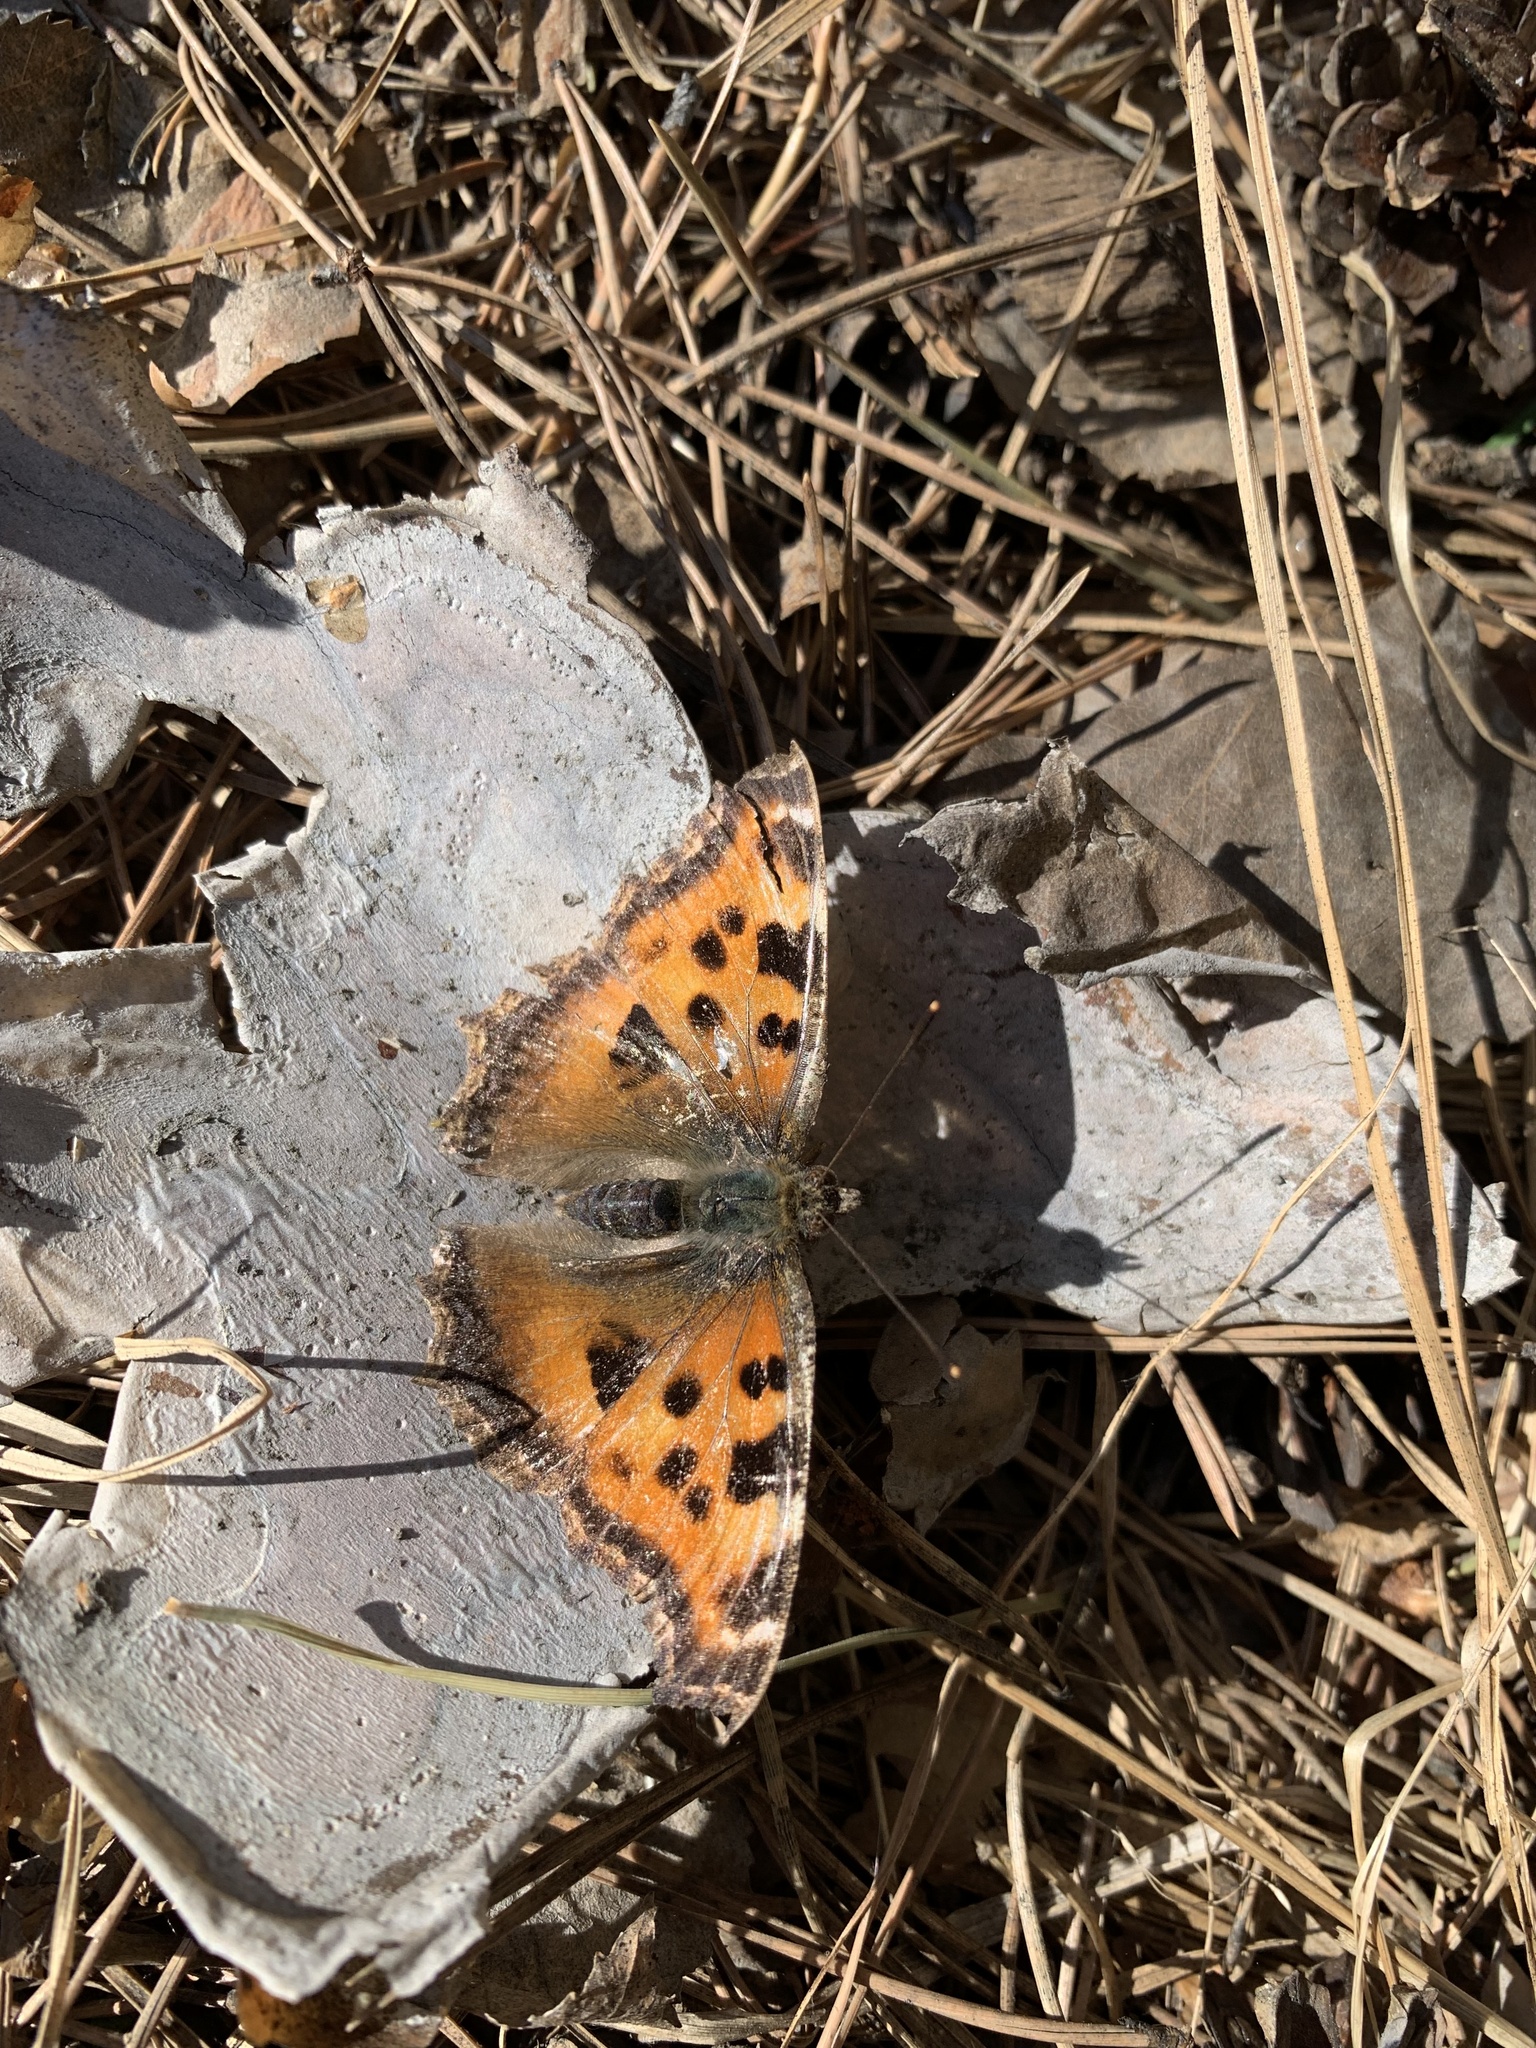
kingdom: Animalia
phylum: Arthropoda
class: Insecta
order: Lepidoptera
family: Nymphalidae
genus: Nymphalis
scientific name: Nymphalis xanthomelas
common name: Scarce tortoiseshell
